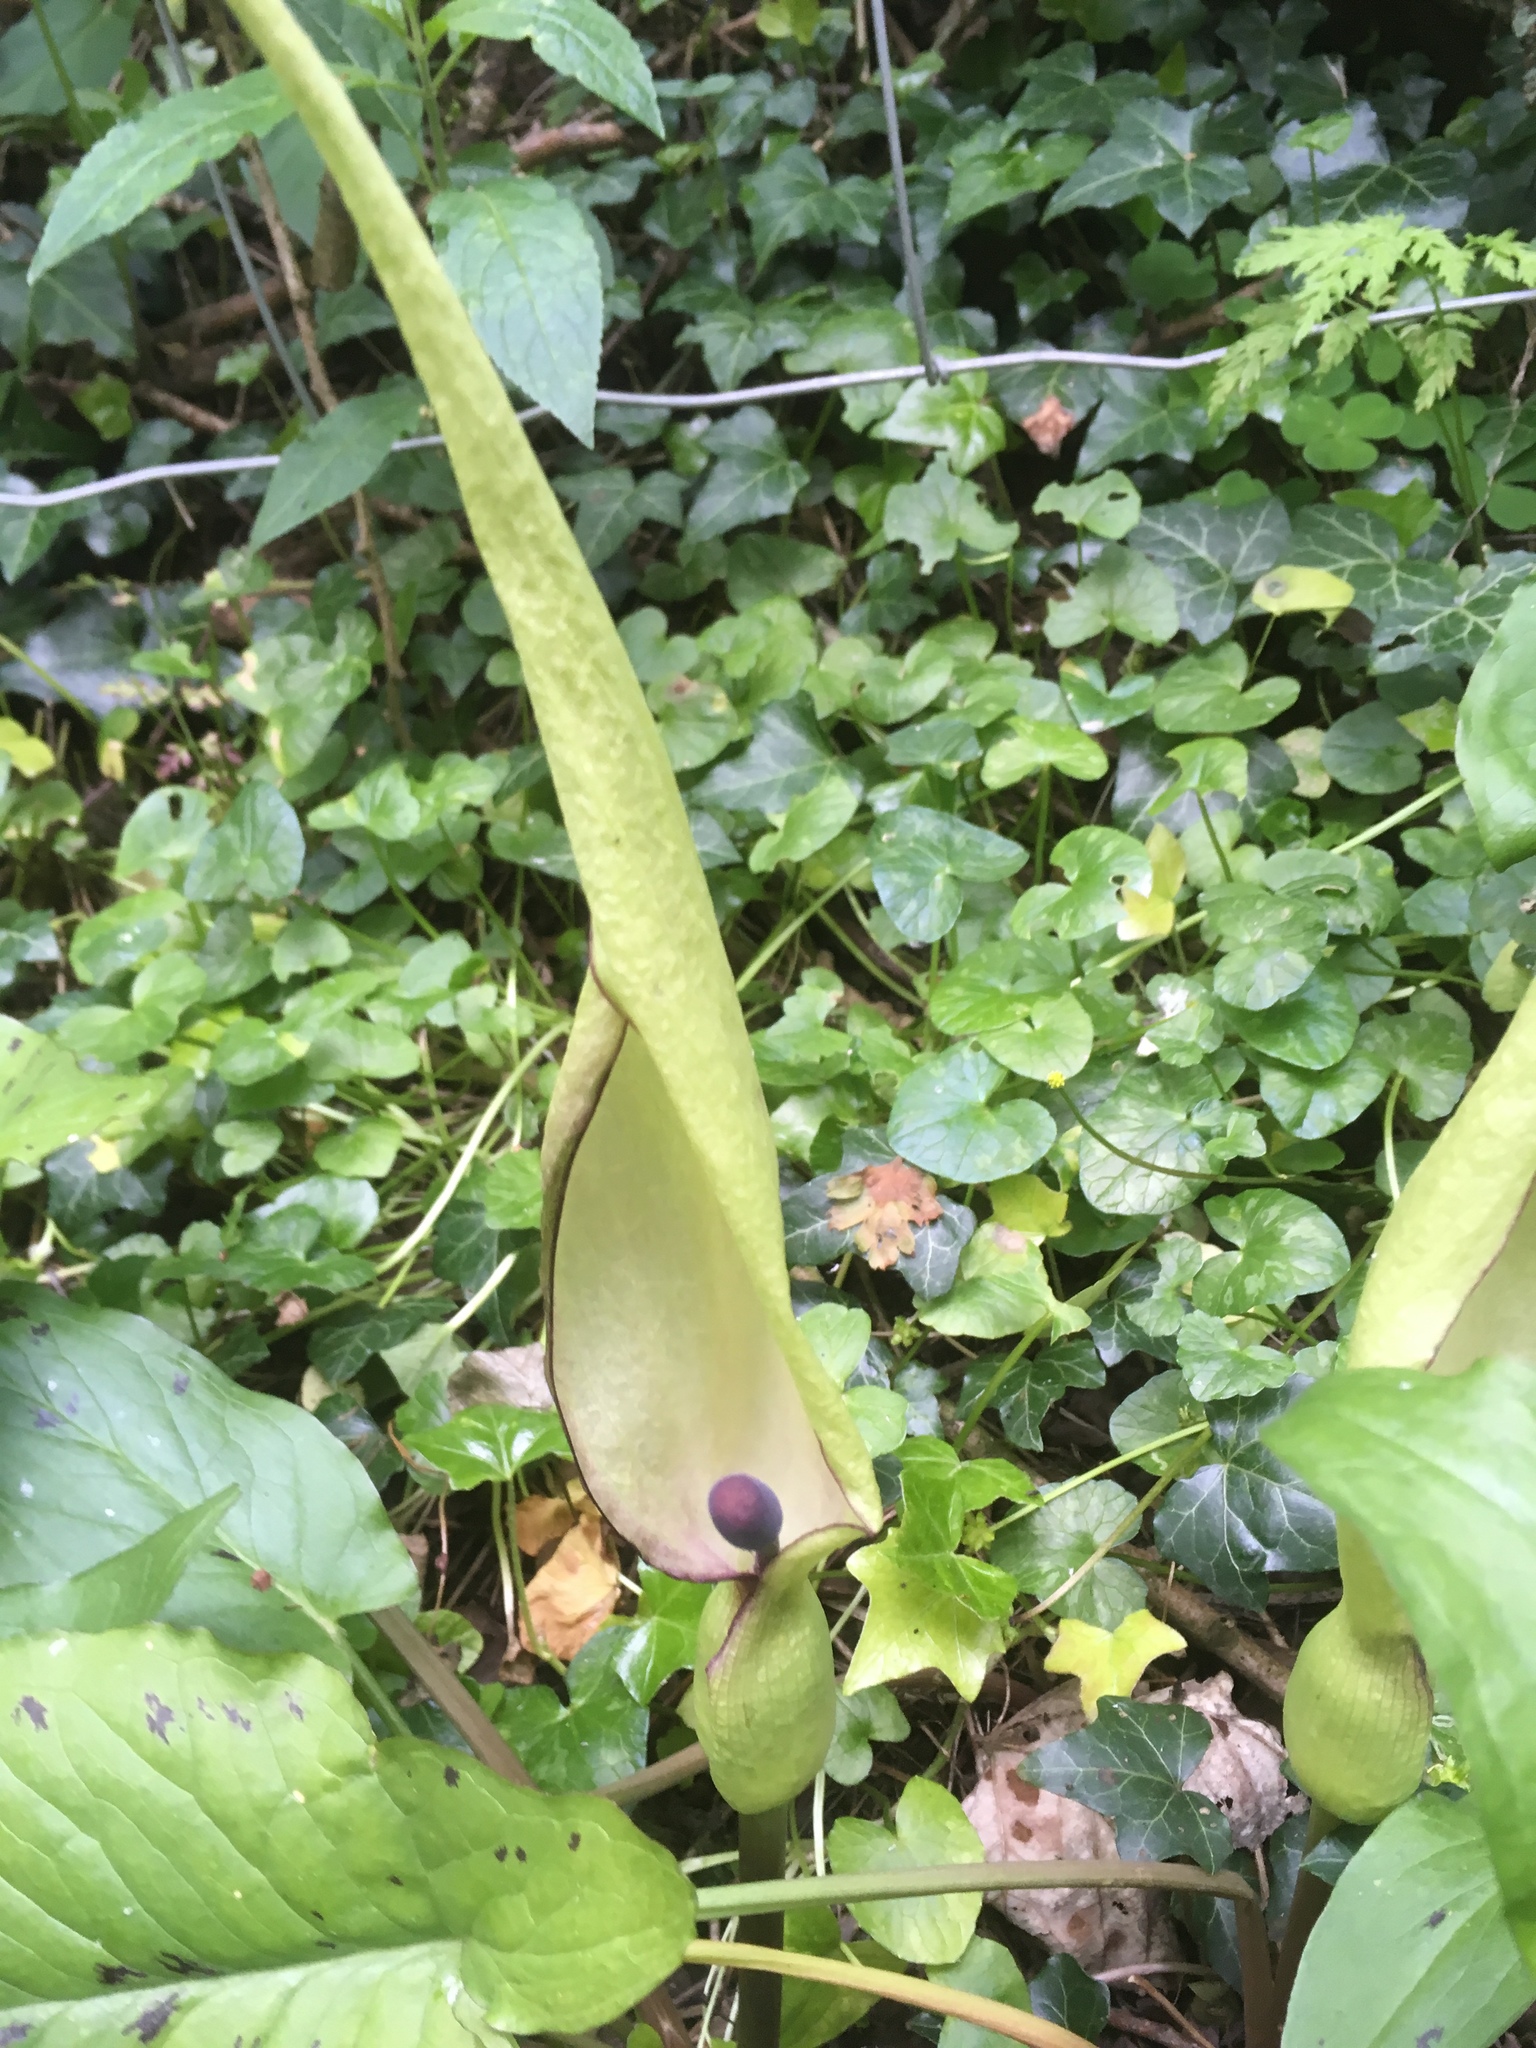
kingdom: Plantae
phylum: Tracheophyta
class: Liliopsida
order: Alismatales
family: Araceae
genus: Arum
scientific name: Arum maculatum
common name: Lords-and-ladies
